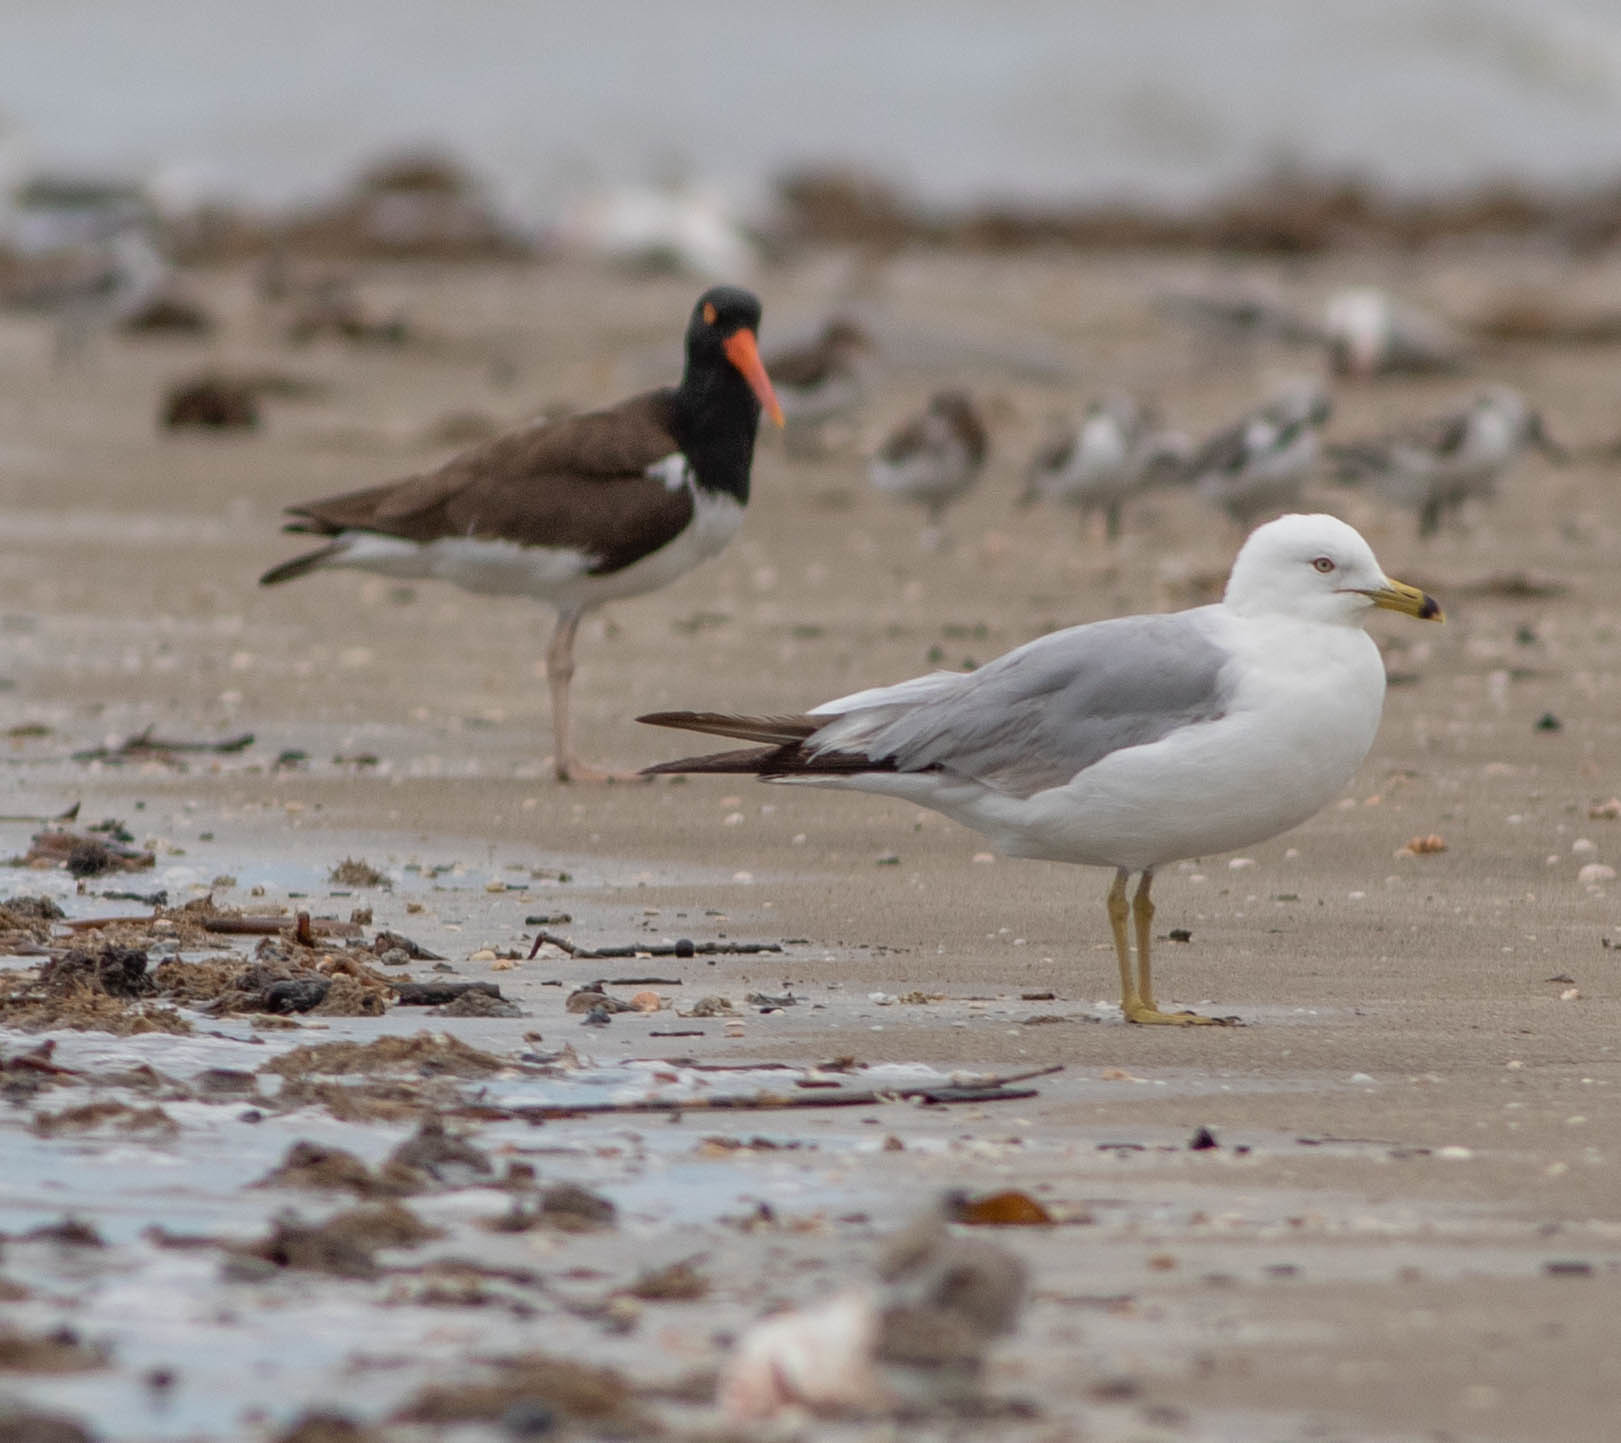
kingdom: Animalia
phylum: Chordata
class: Aves
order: Charadriiformes
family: Laridae
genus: Larus
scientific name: Larus delawarensis
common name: Ring-billed gull
